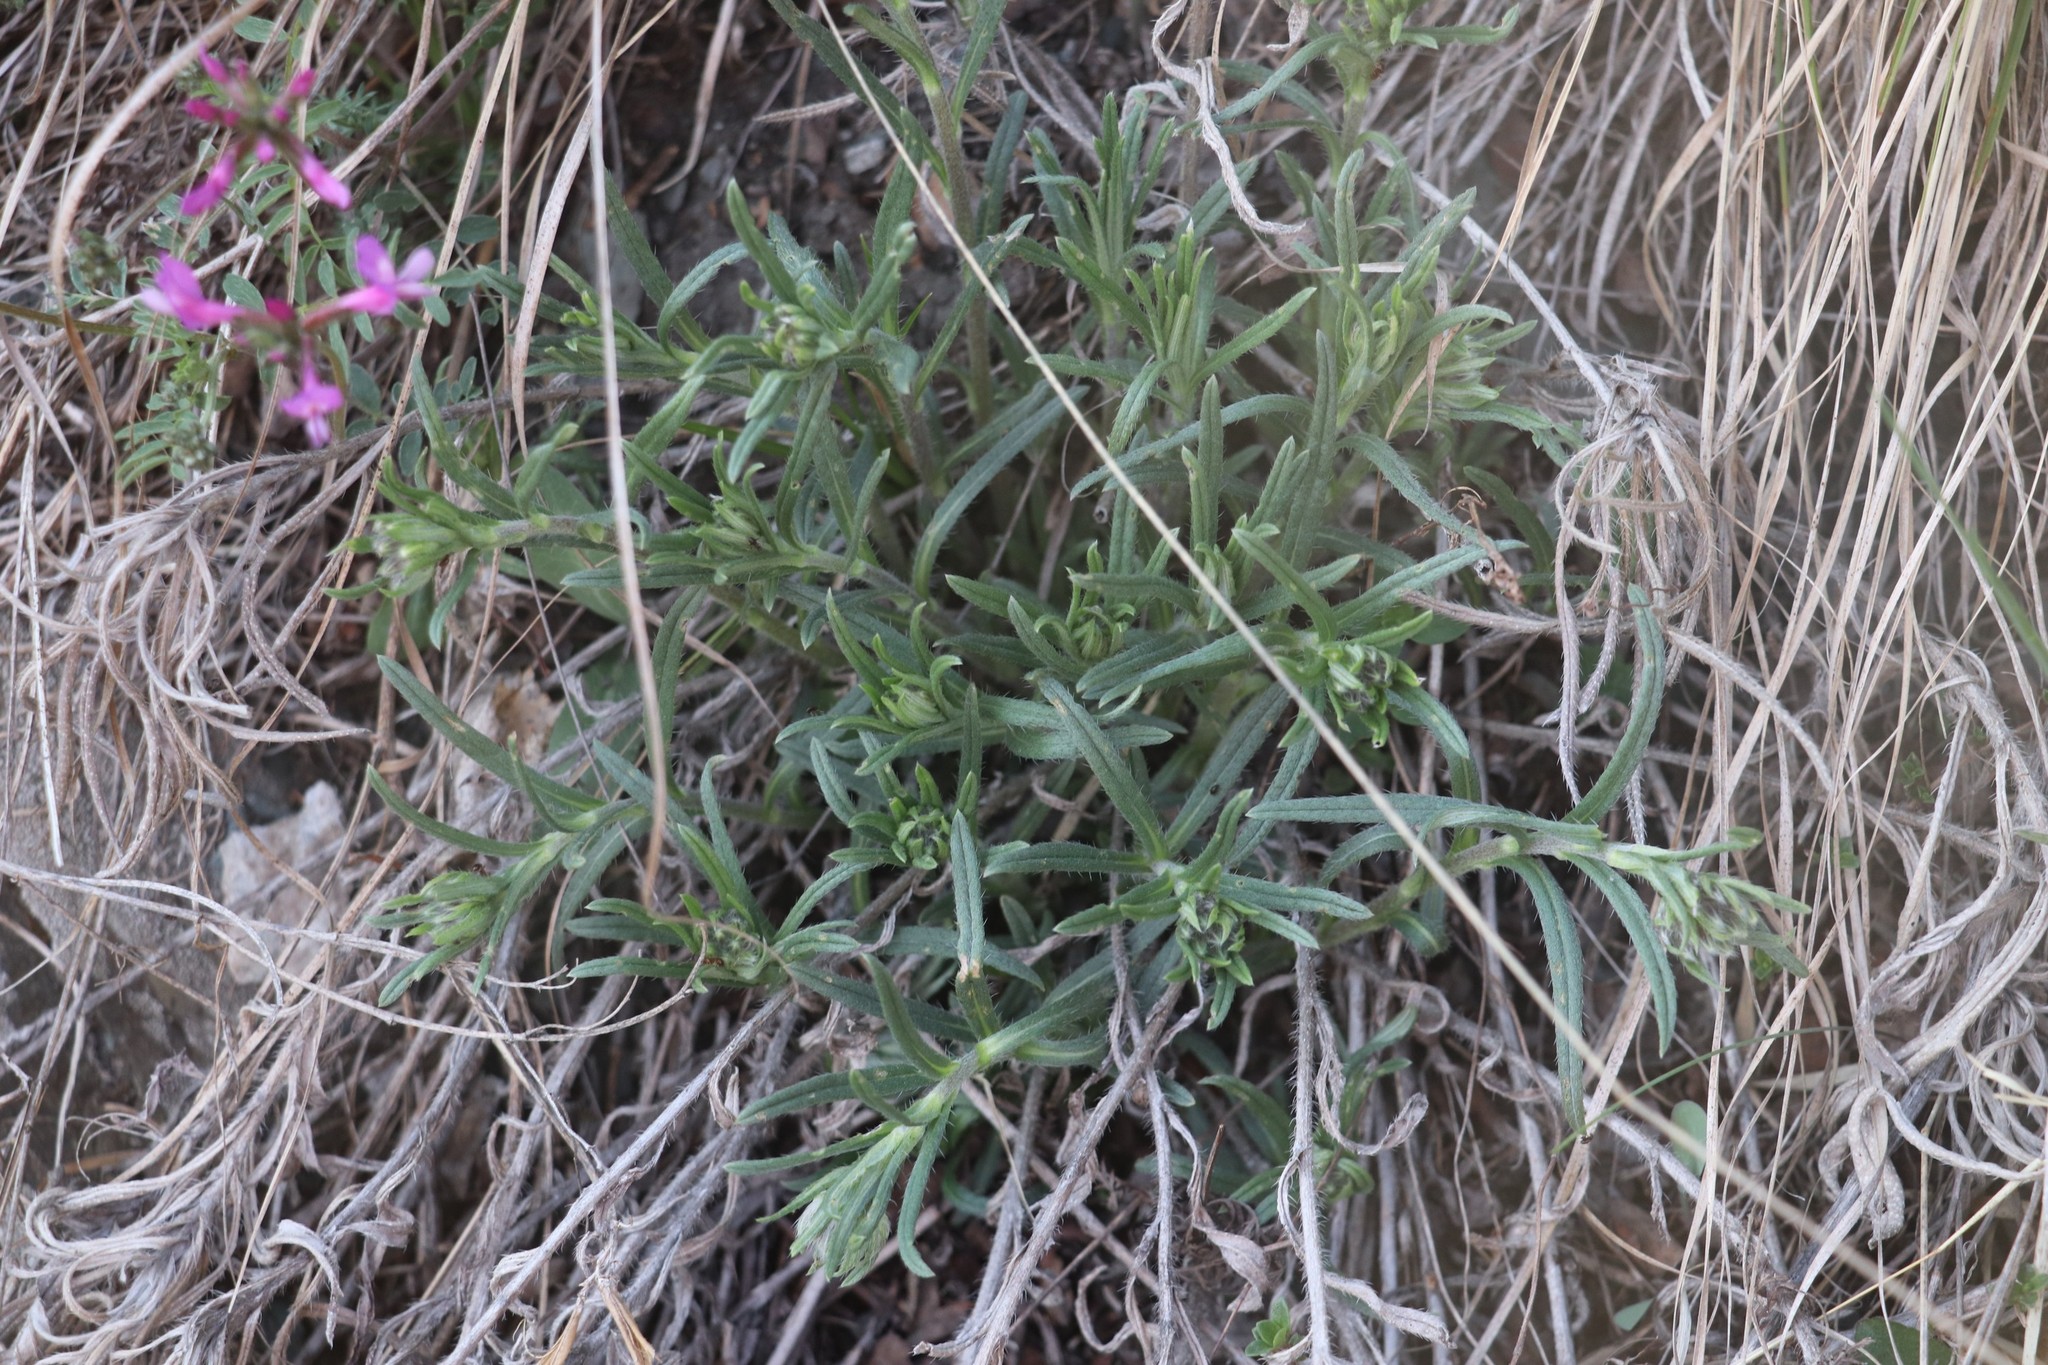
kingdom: Plantae
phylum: Tracheophyta
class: Magnoliopsida
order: Boraginales
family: Boraginaceae
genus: Onosma
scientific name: Onosma simplicissima
